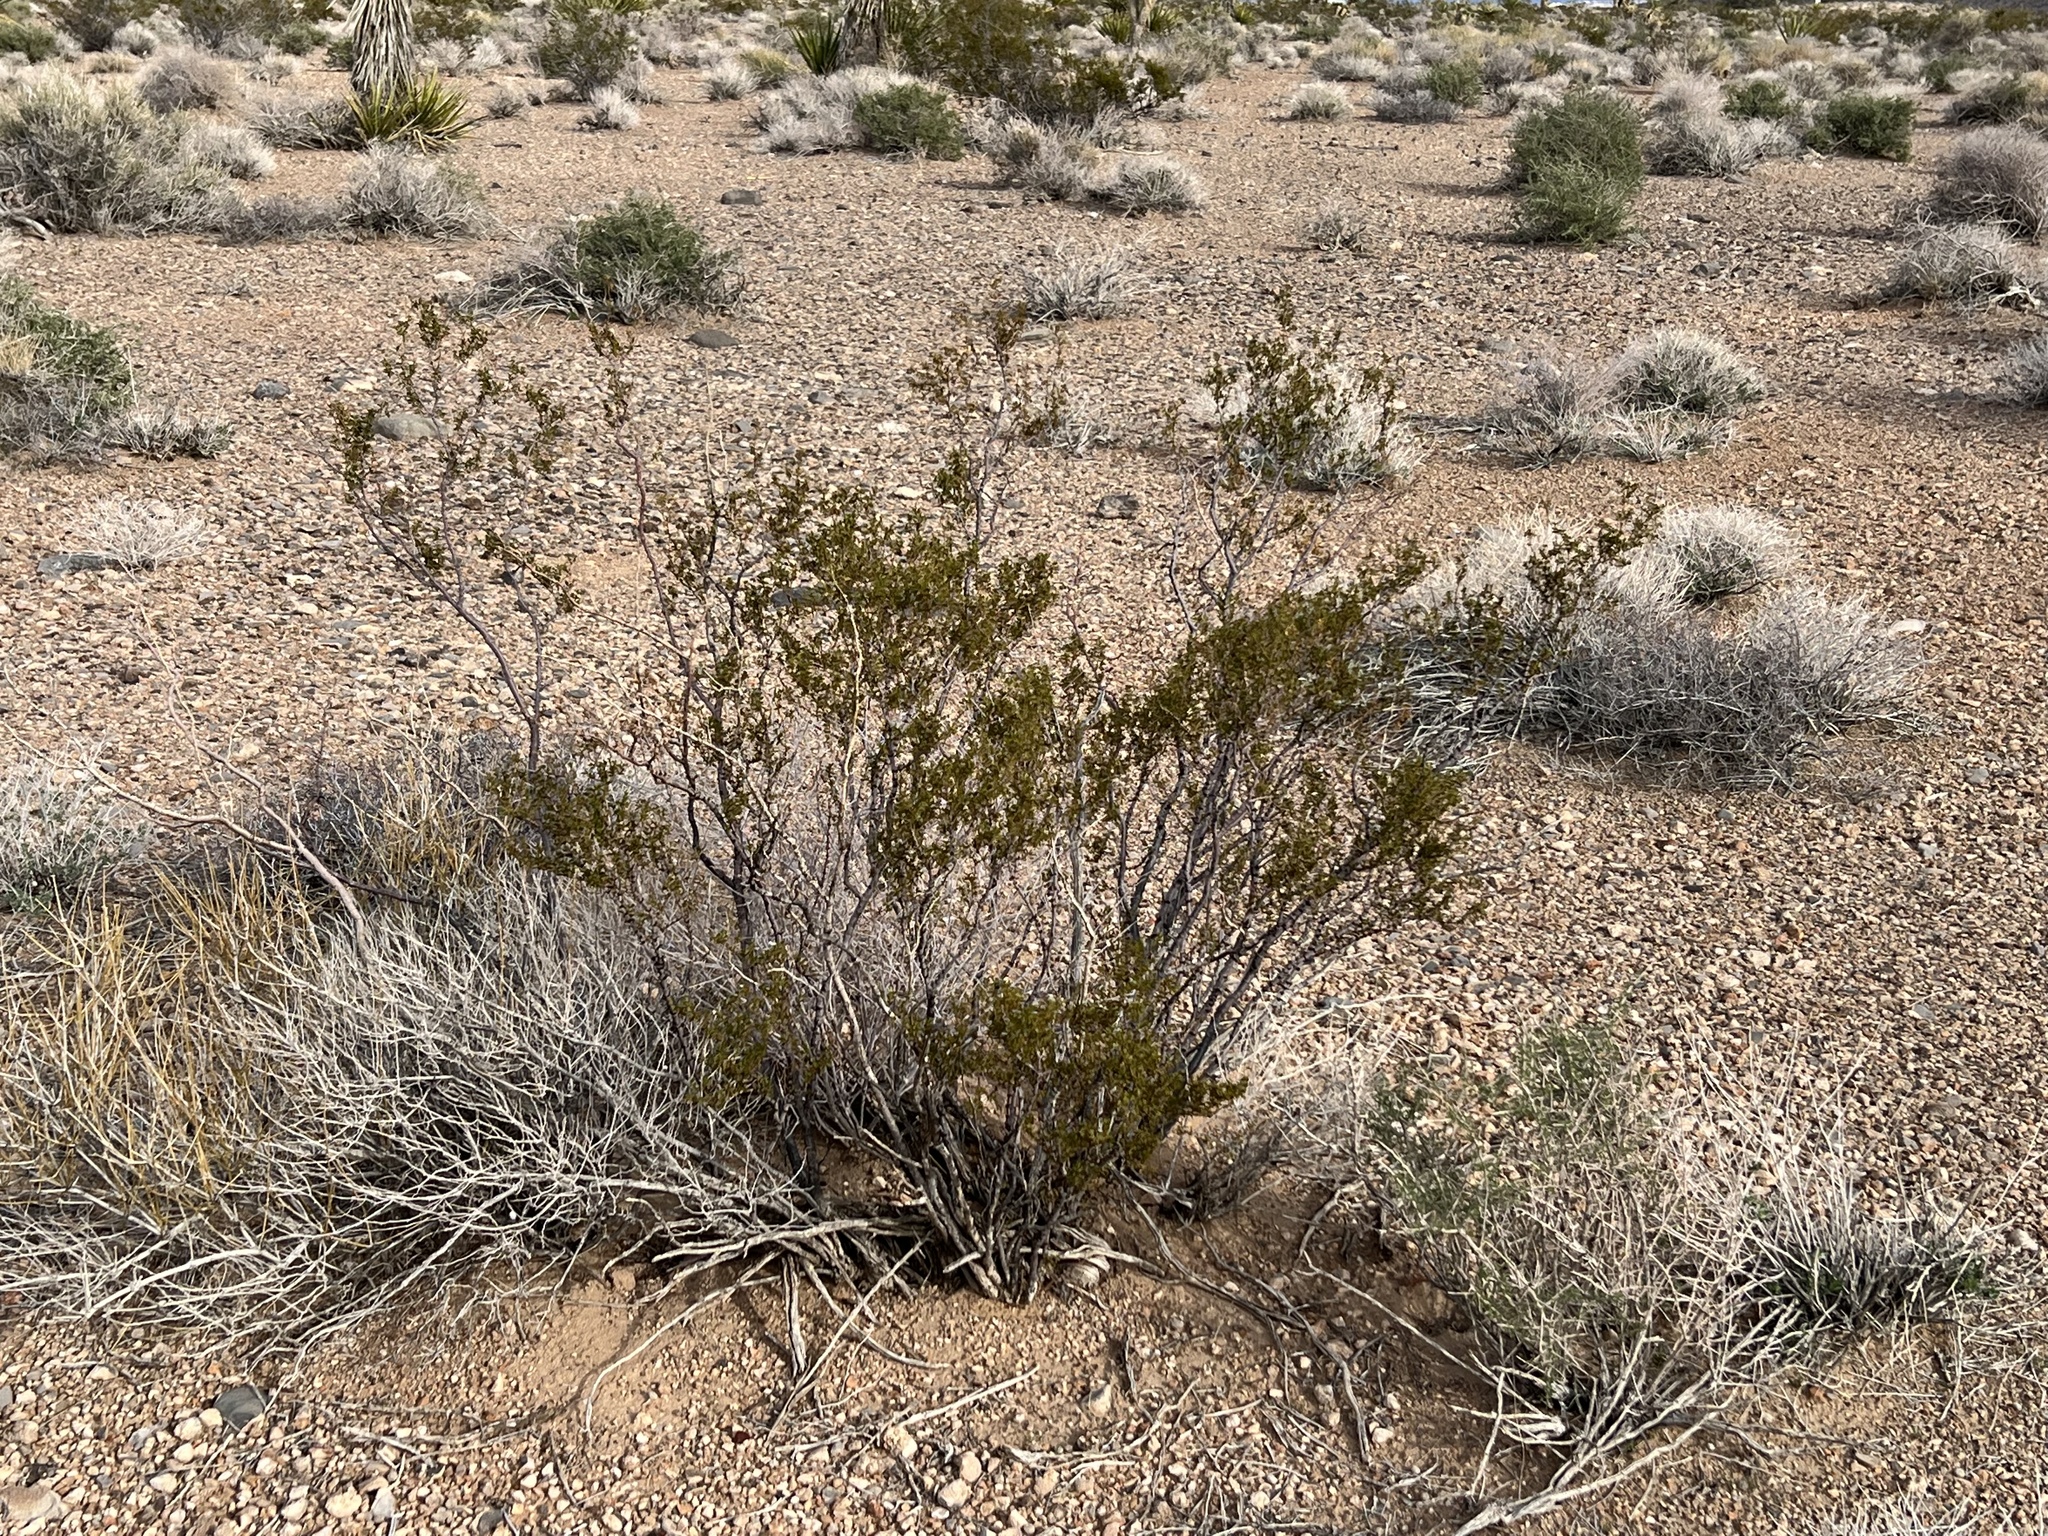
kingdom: Plantae
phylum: Tracheophyta
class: Magnoliopsida
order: Zygophyllales
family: Zygophyllaceae
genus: Larrea
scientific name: Larrea tridentata
